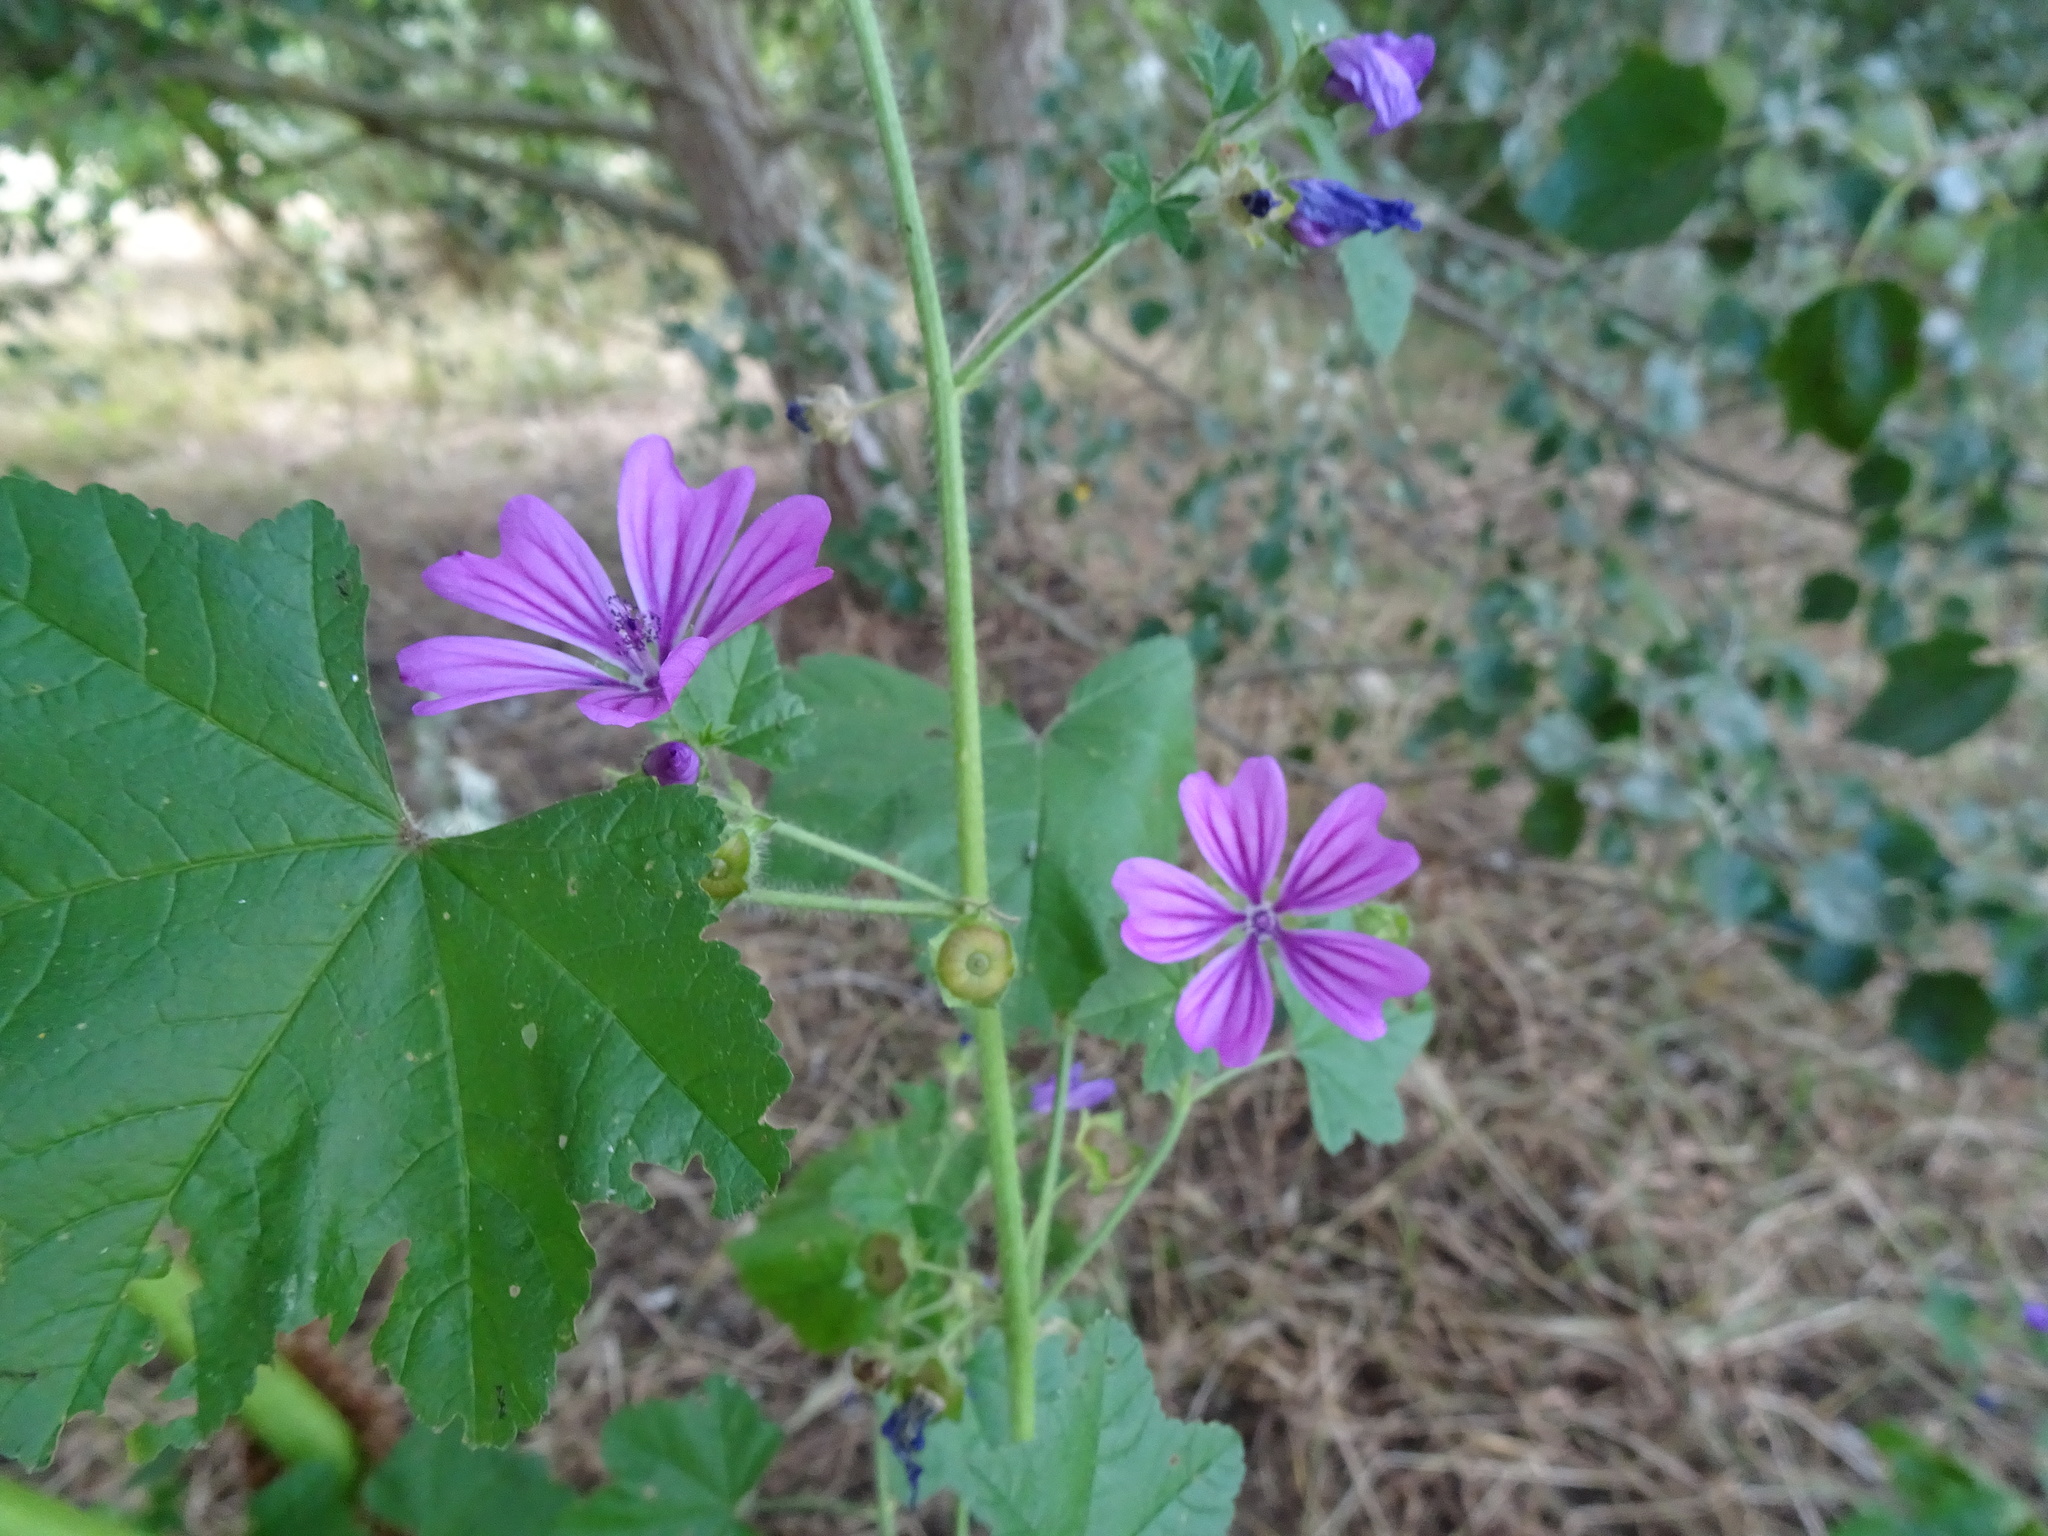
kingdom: Plantae
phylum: Tracheophyta
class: Magnoliopsida
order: Malvales
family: Malvaceae
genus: Malva
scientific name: Malva sylvestris
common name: Common mallow
